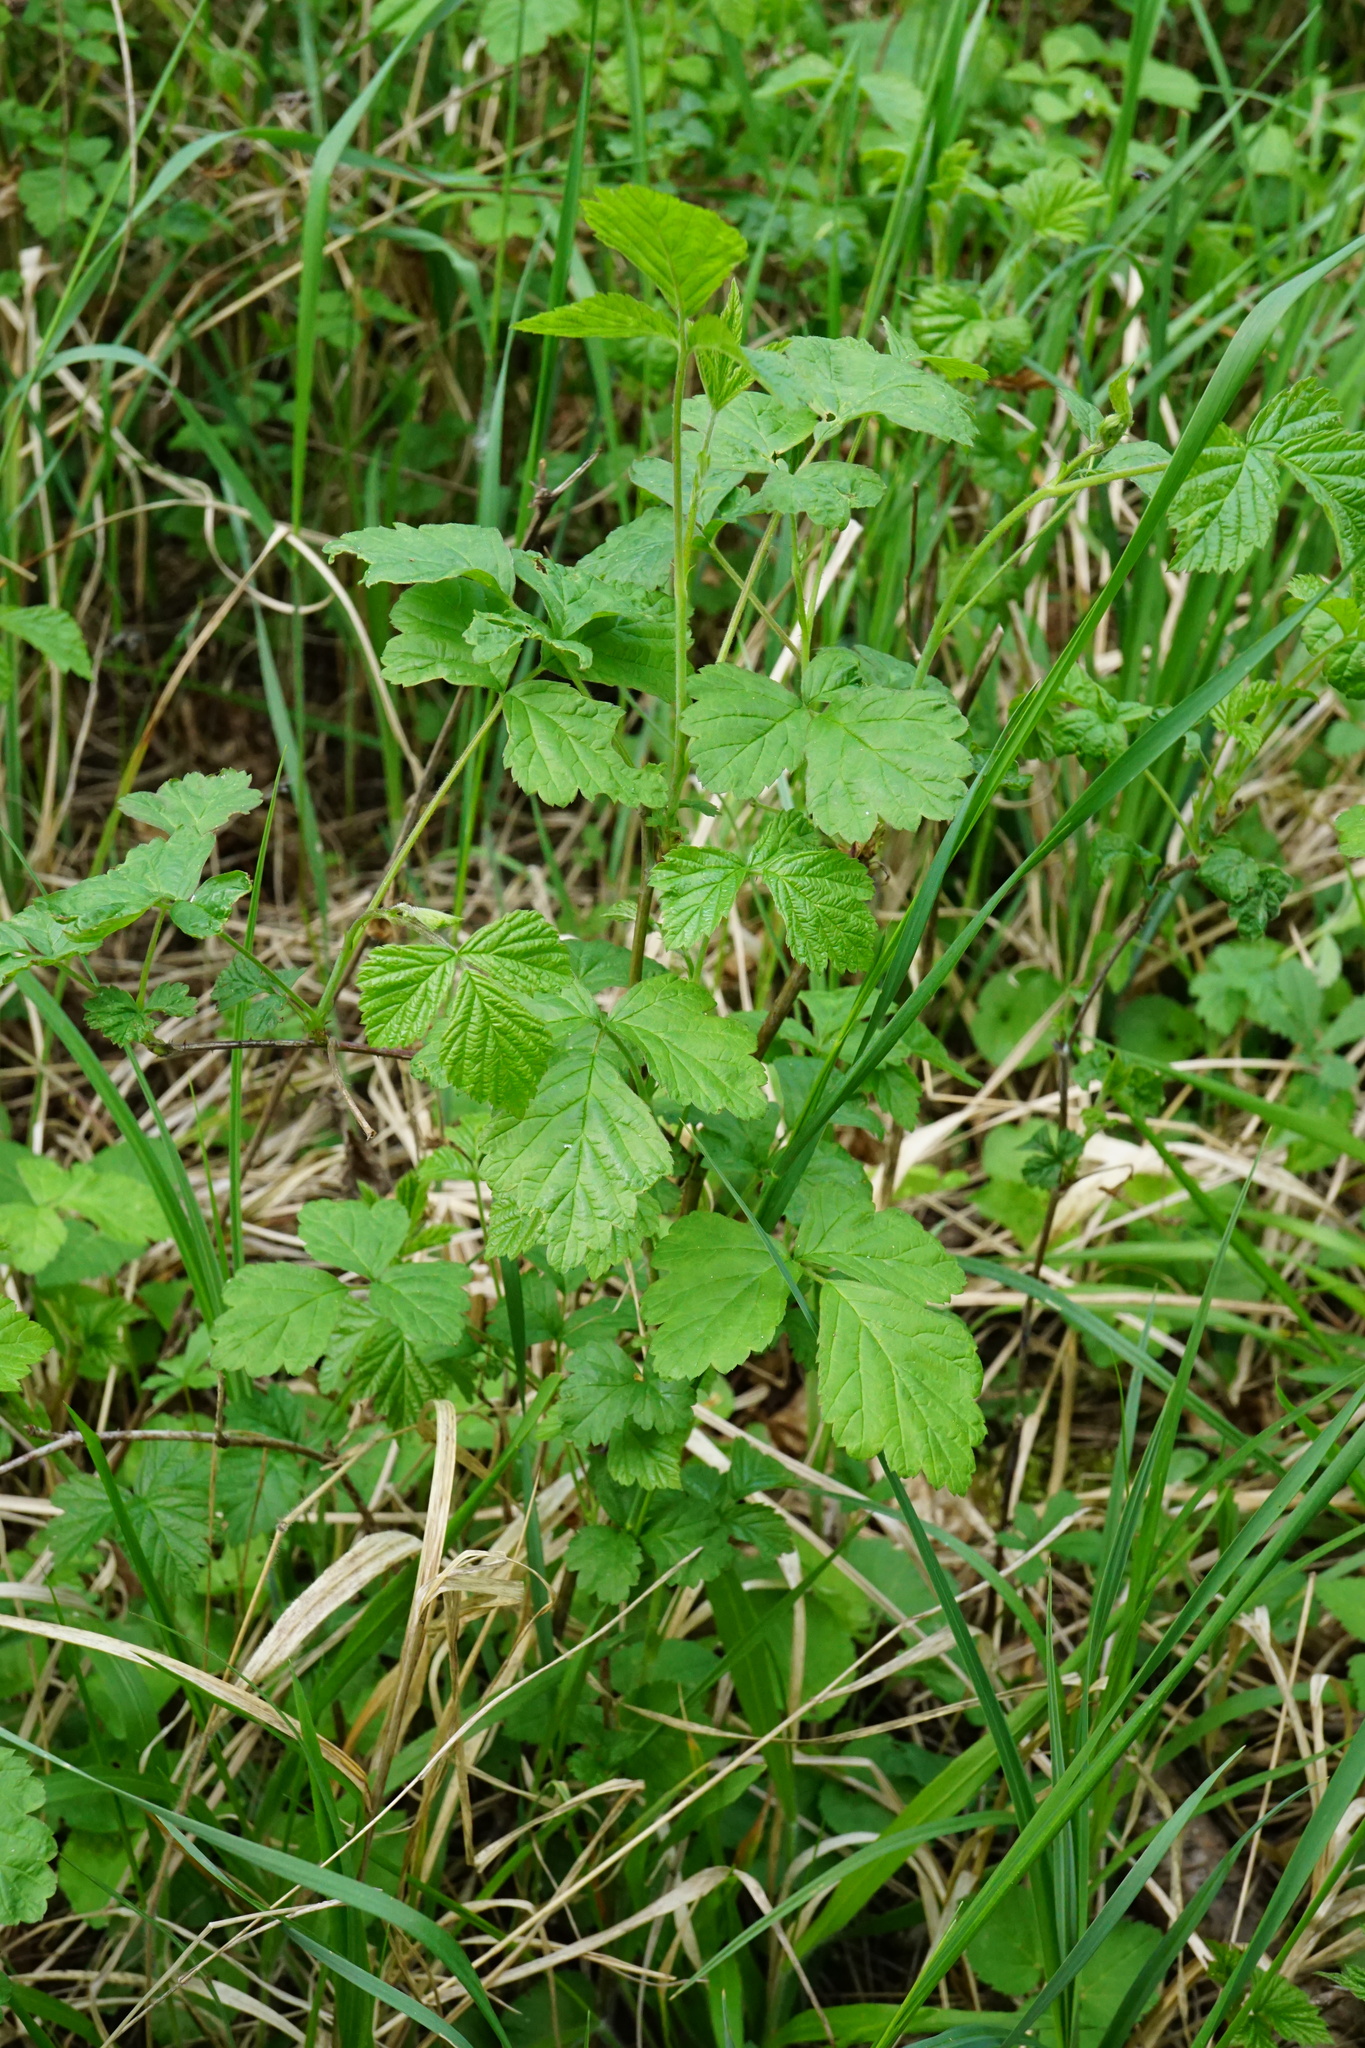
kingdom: Plantae
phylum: Tracheophyta
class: Magnoliopsida
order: Rosales
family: Rosaceae
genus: Rubus
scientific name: Rubus caesius
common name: Dewberry
